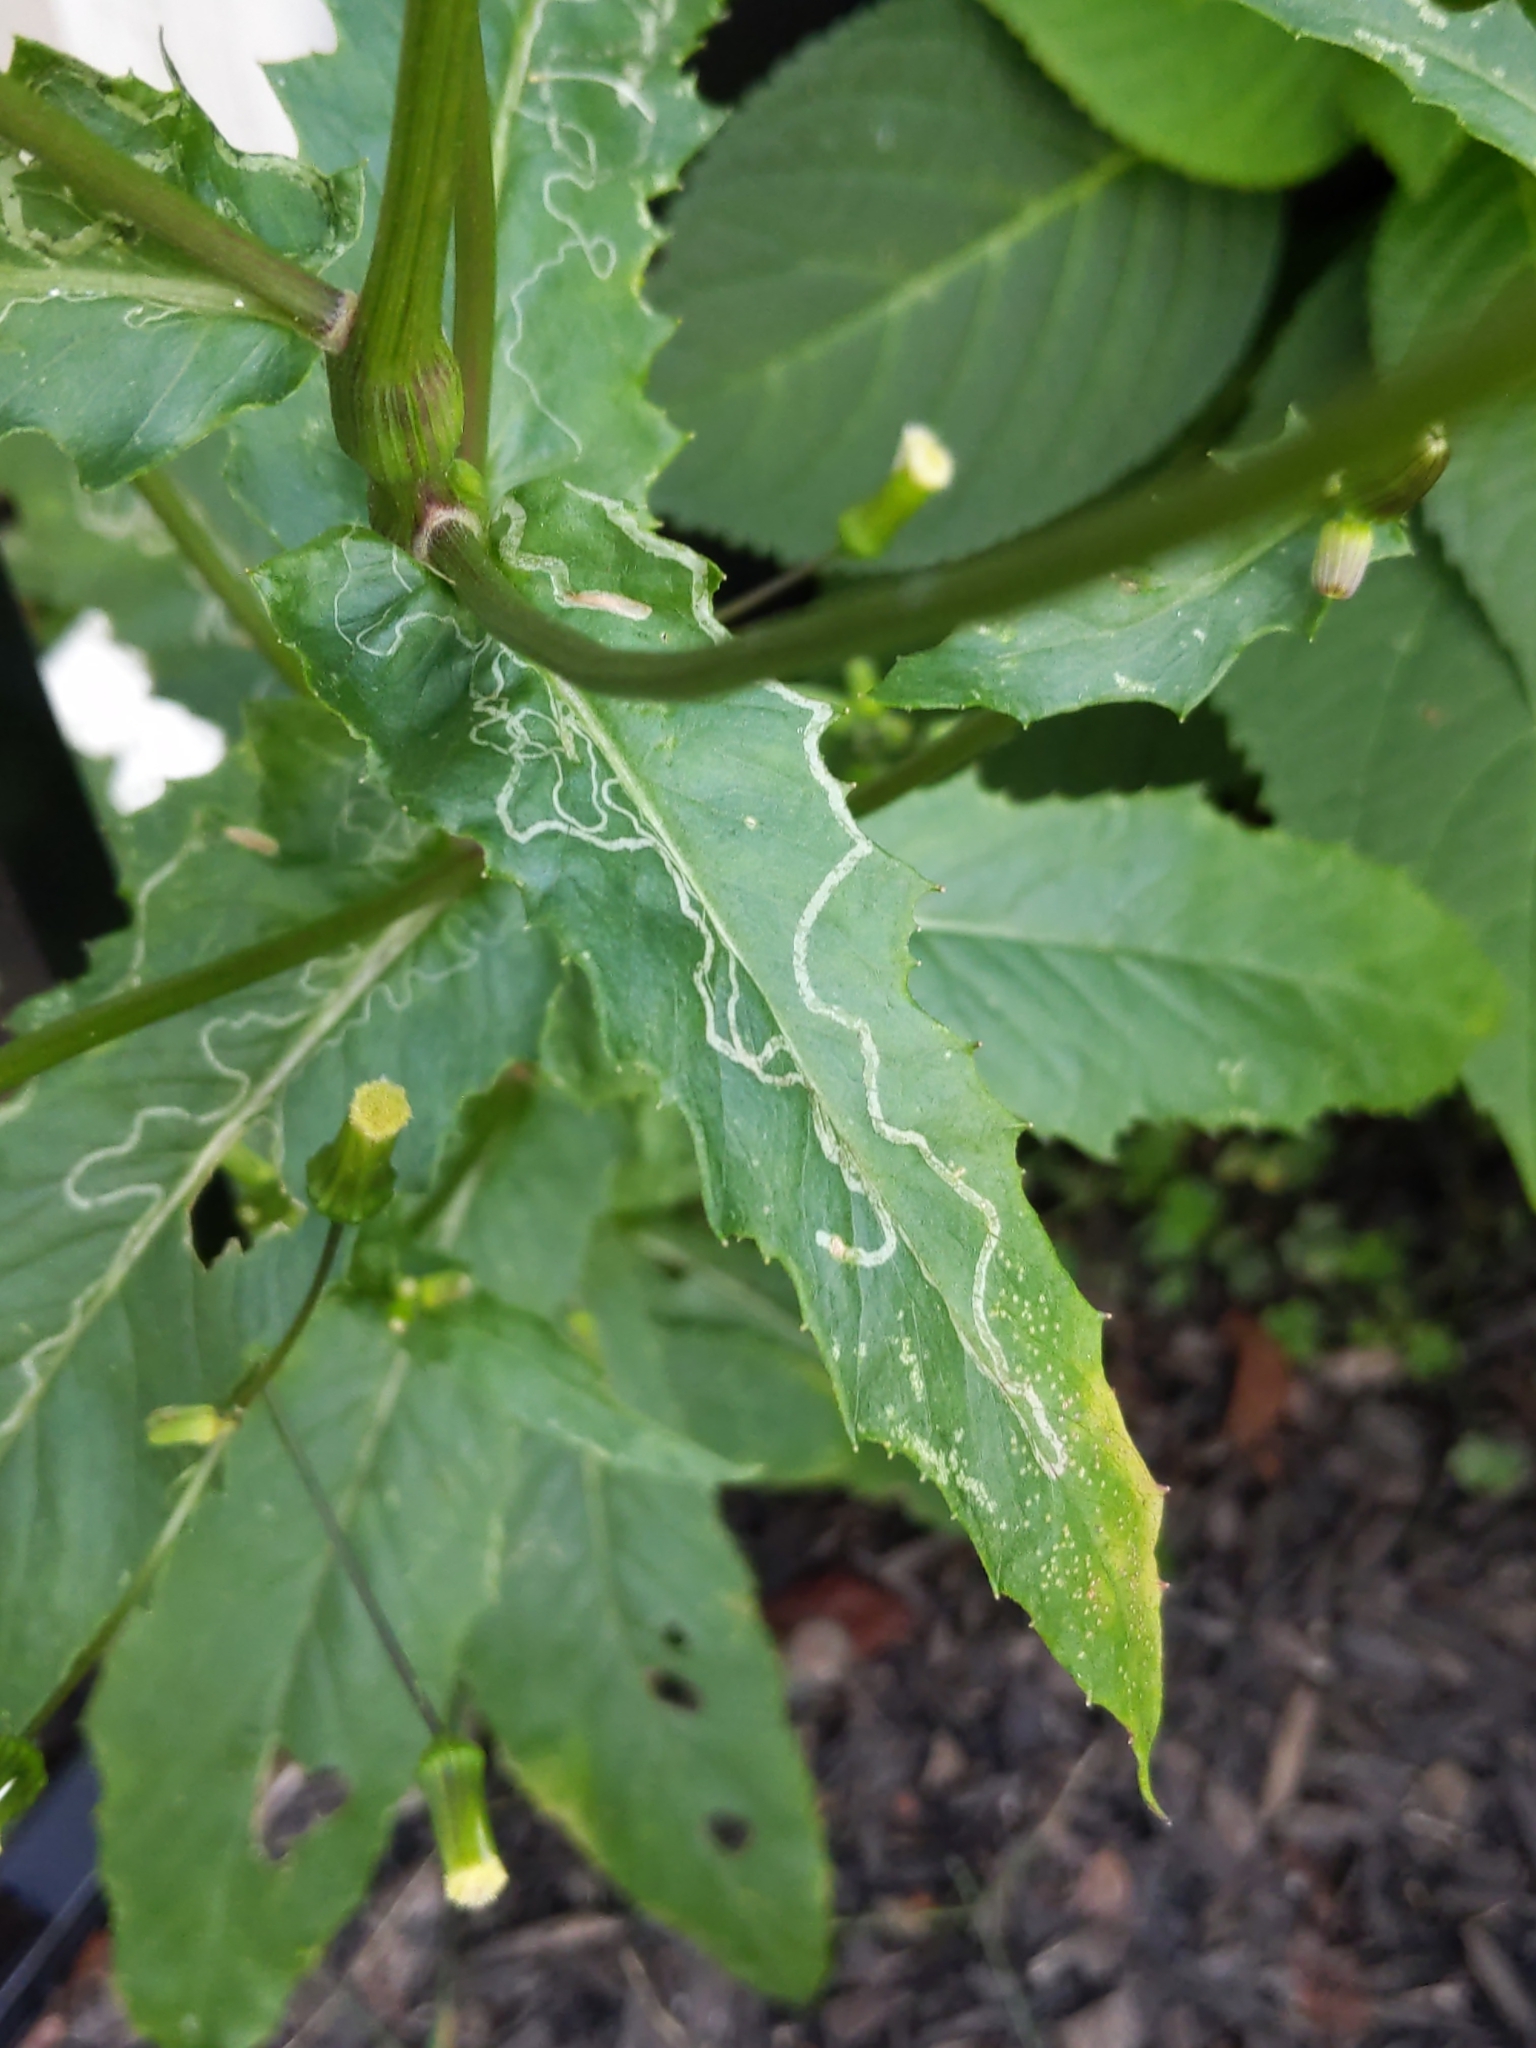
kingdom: Animalia
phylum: Arthropoda
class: Insecta
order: Lepidoptera
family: Gracillariidae
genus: Phyllocnistis
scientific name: Phyllocnistis insignis
